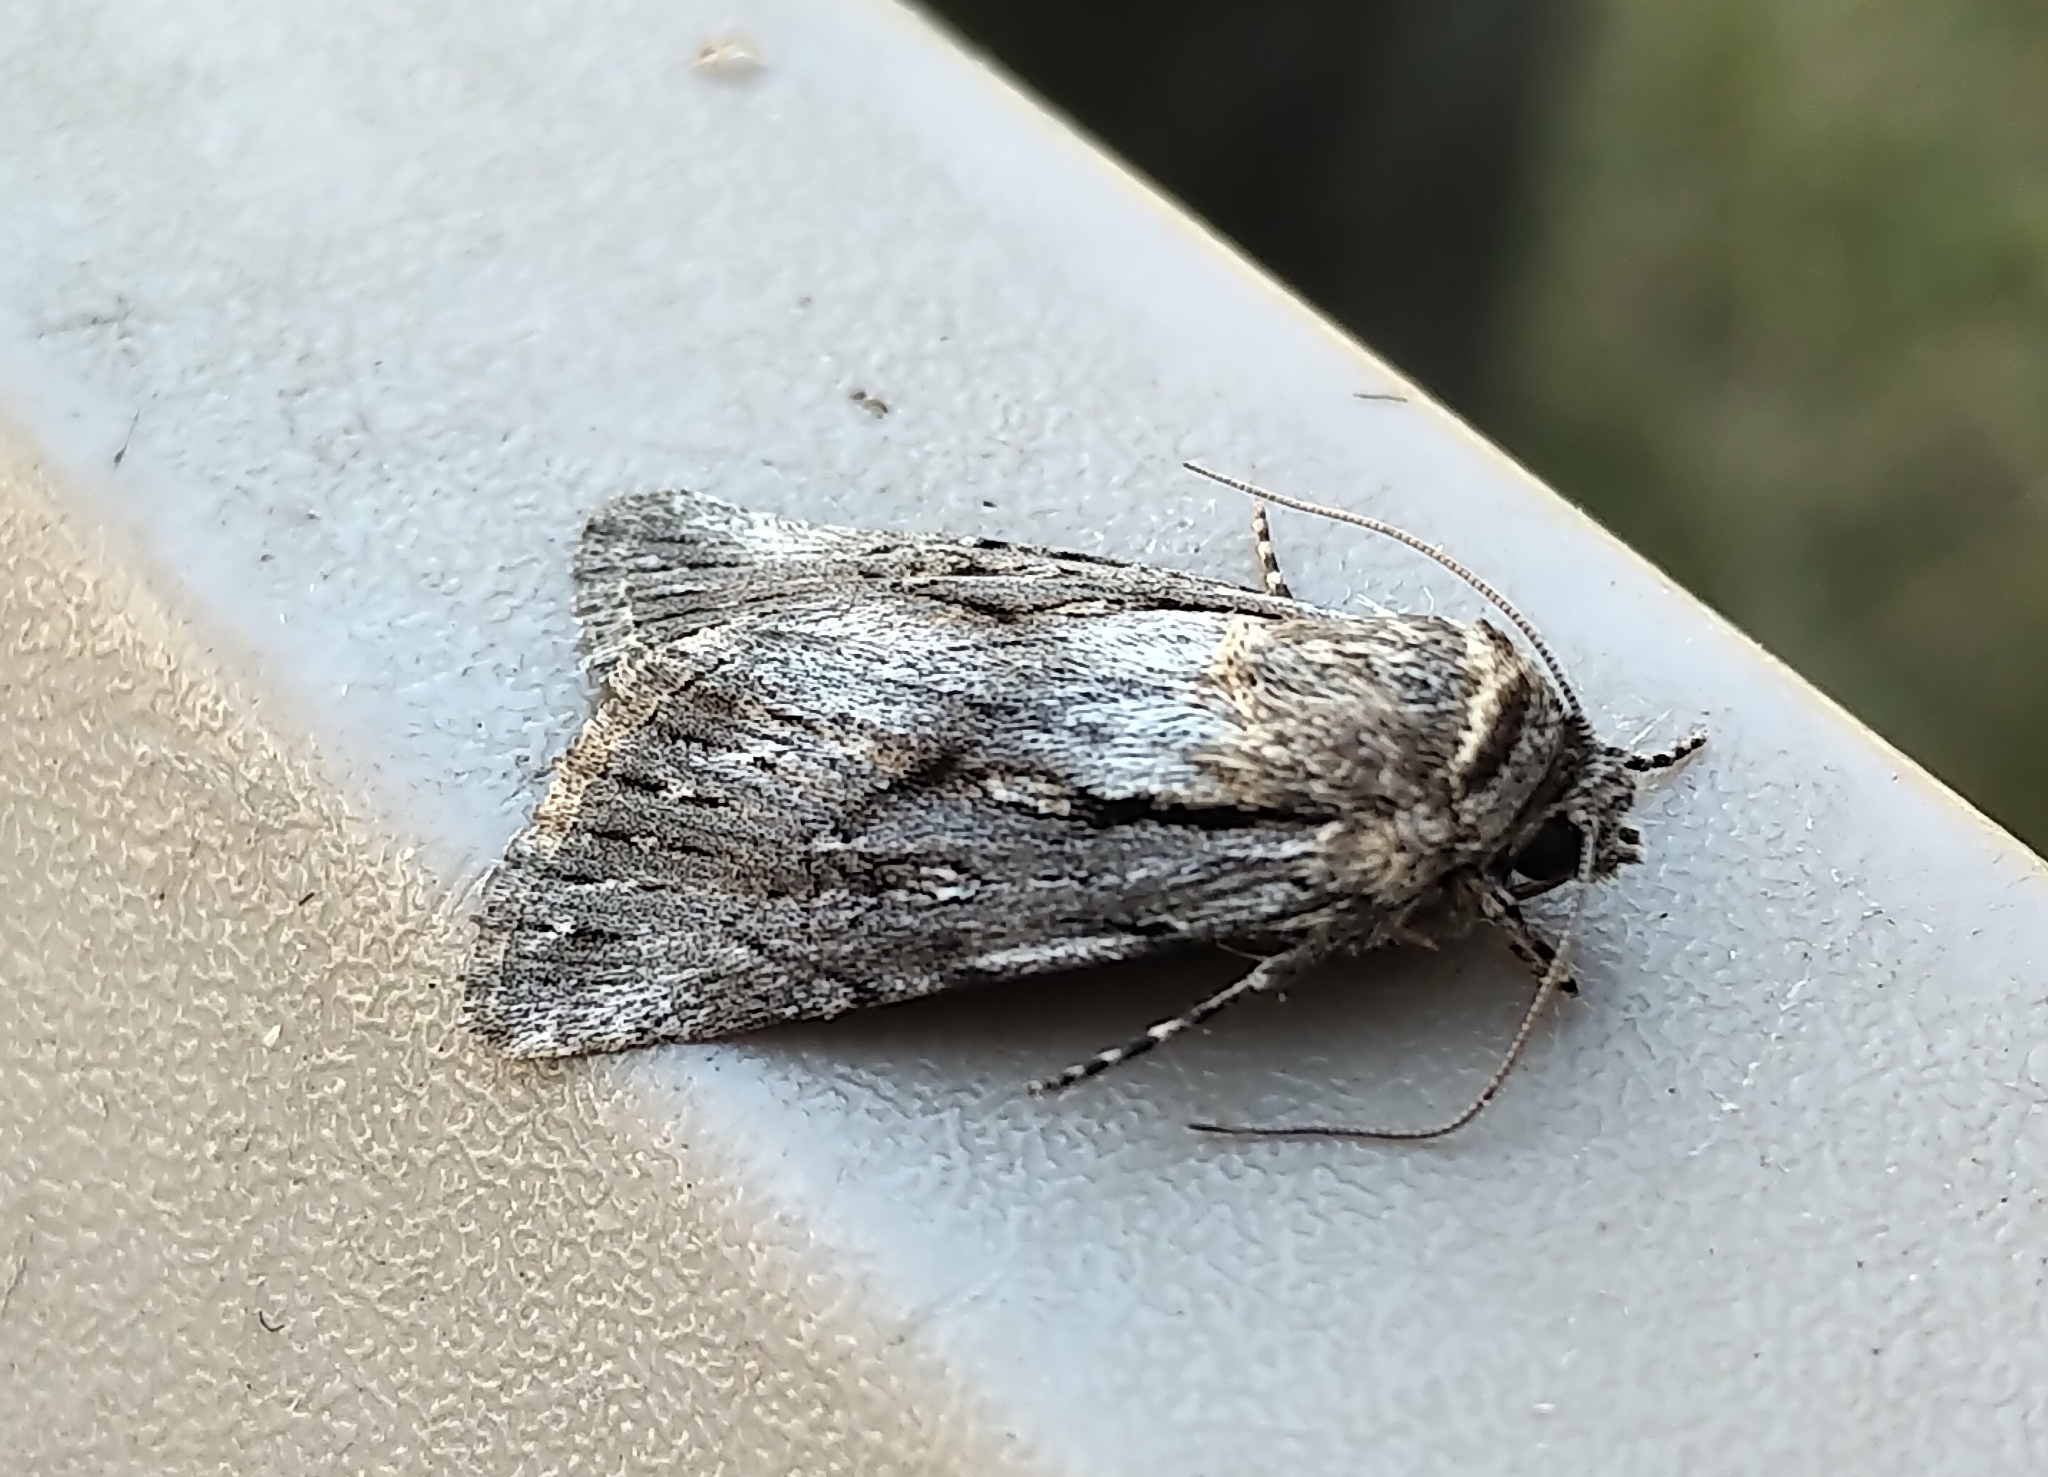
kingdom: Animalia
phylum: Arthropoda
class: Insecta
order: Lepidoptera
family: Noctuidae
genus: Sympistis
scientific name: Sympistis mackiei
